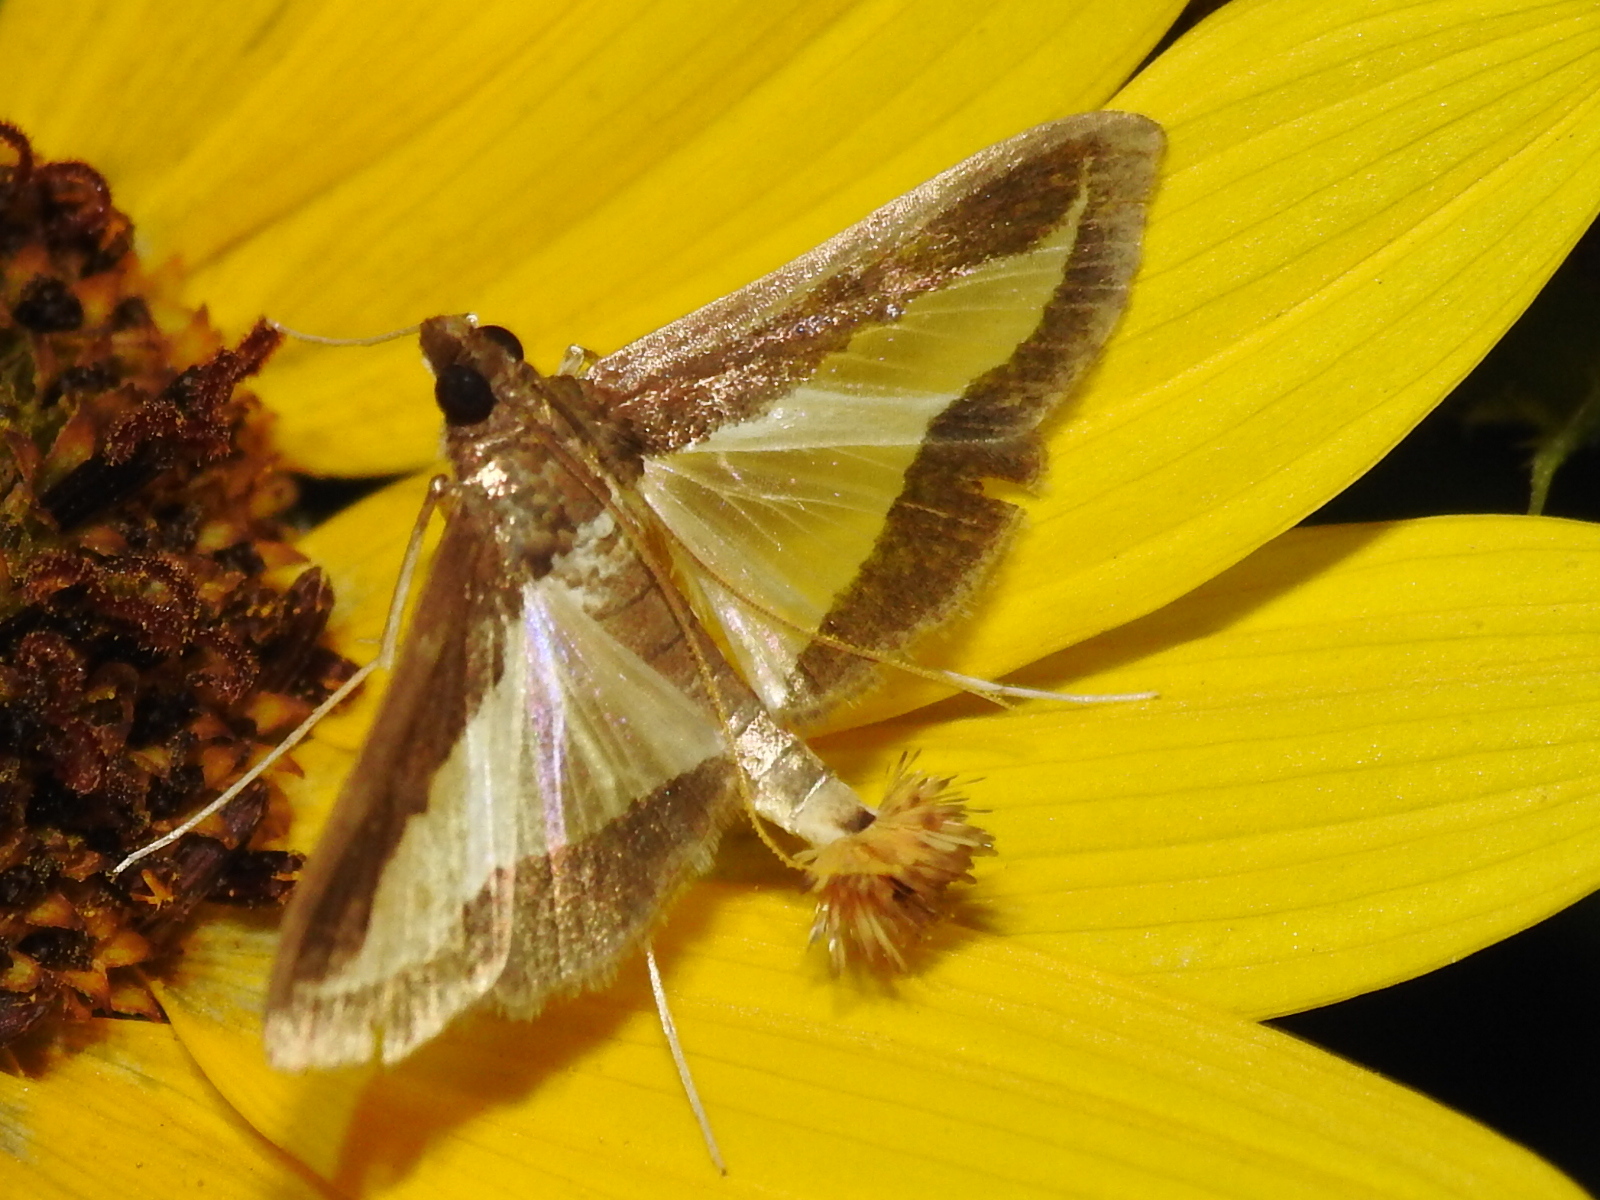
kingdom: Animalia
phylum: Arthropoda
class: Insecta
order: Lepidoptera
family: Crambidae
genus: Diaphania
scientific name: Diaphania hyalinata
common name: Melonworm
